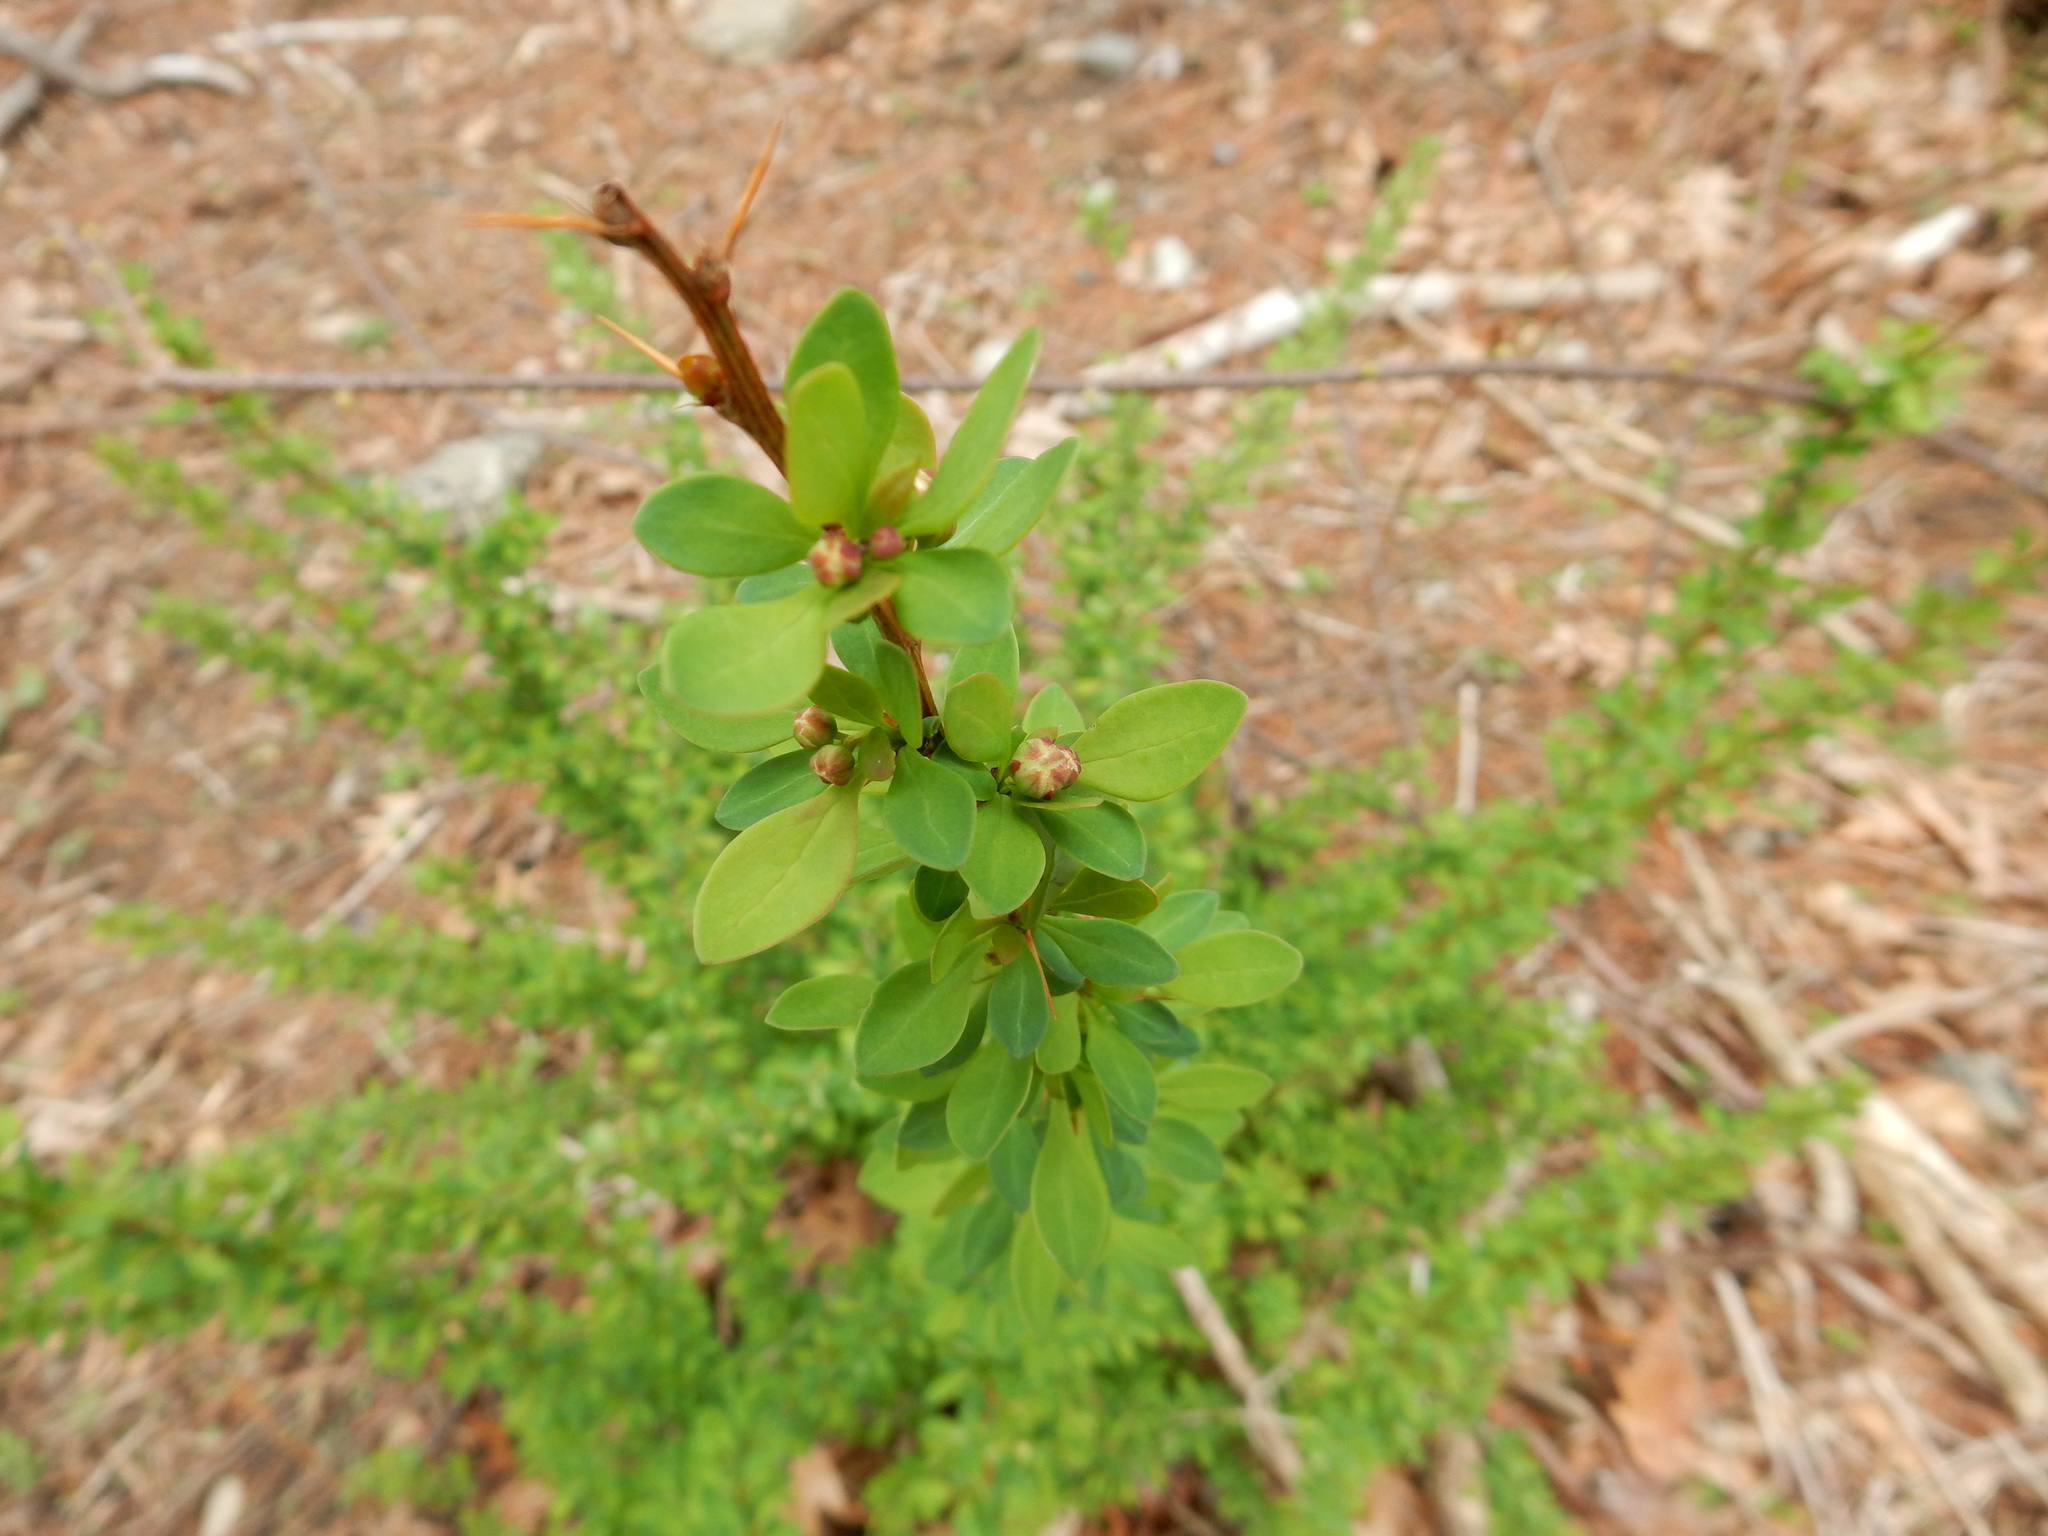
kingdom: Plantae
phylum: Tracheophyta
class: Magnoliopsida
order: Ranunculales
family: Berberidaceae
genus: Berberis
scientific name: Berberis thunbergii
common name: Japanese barberry
